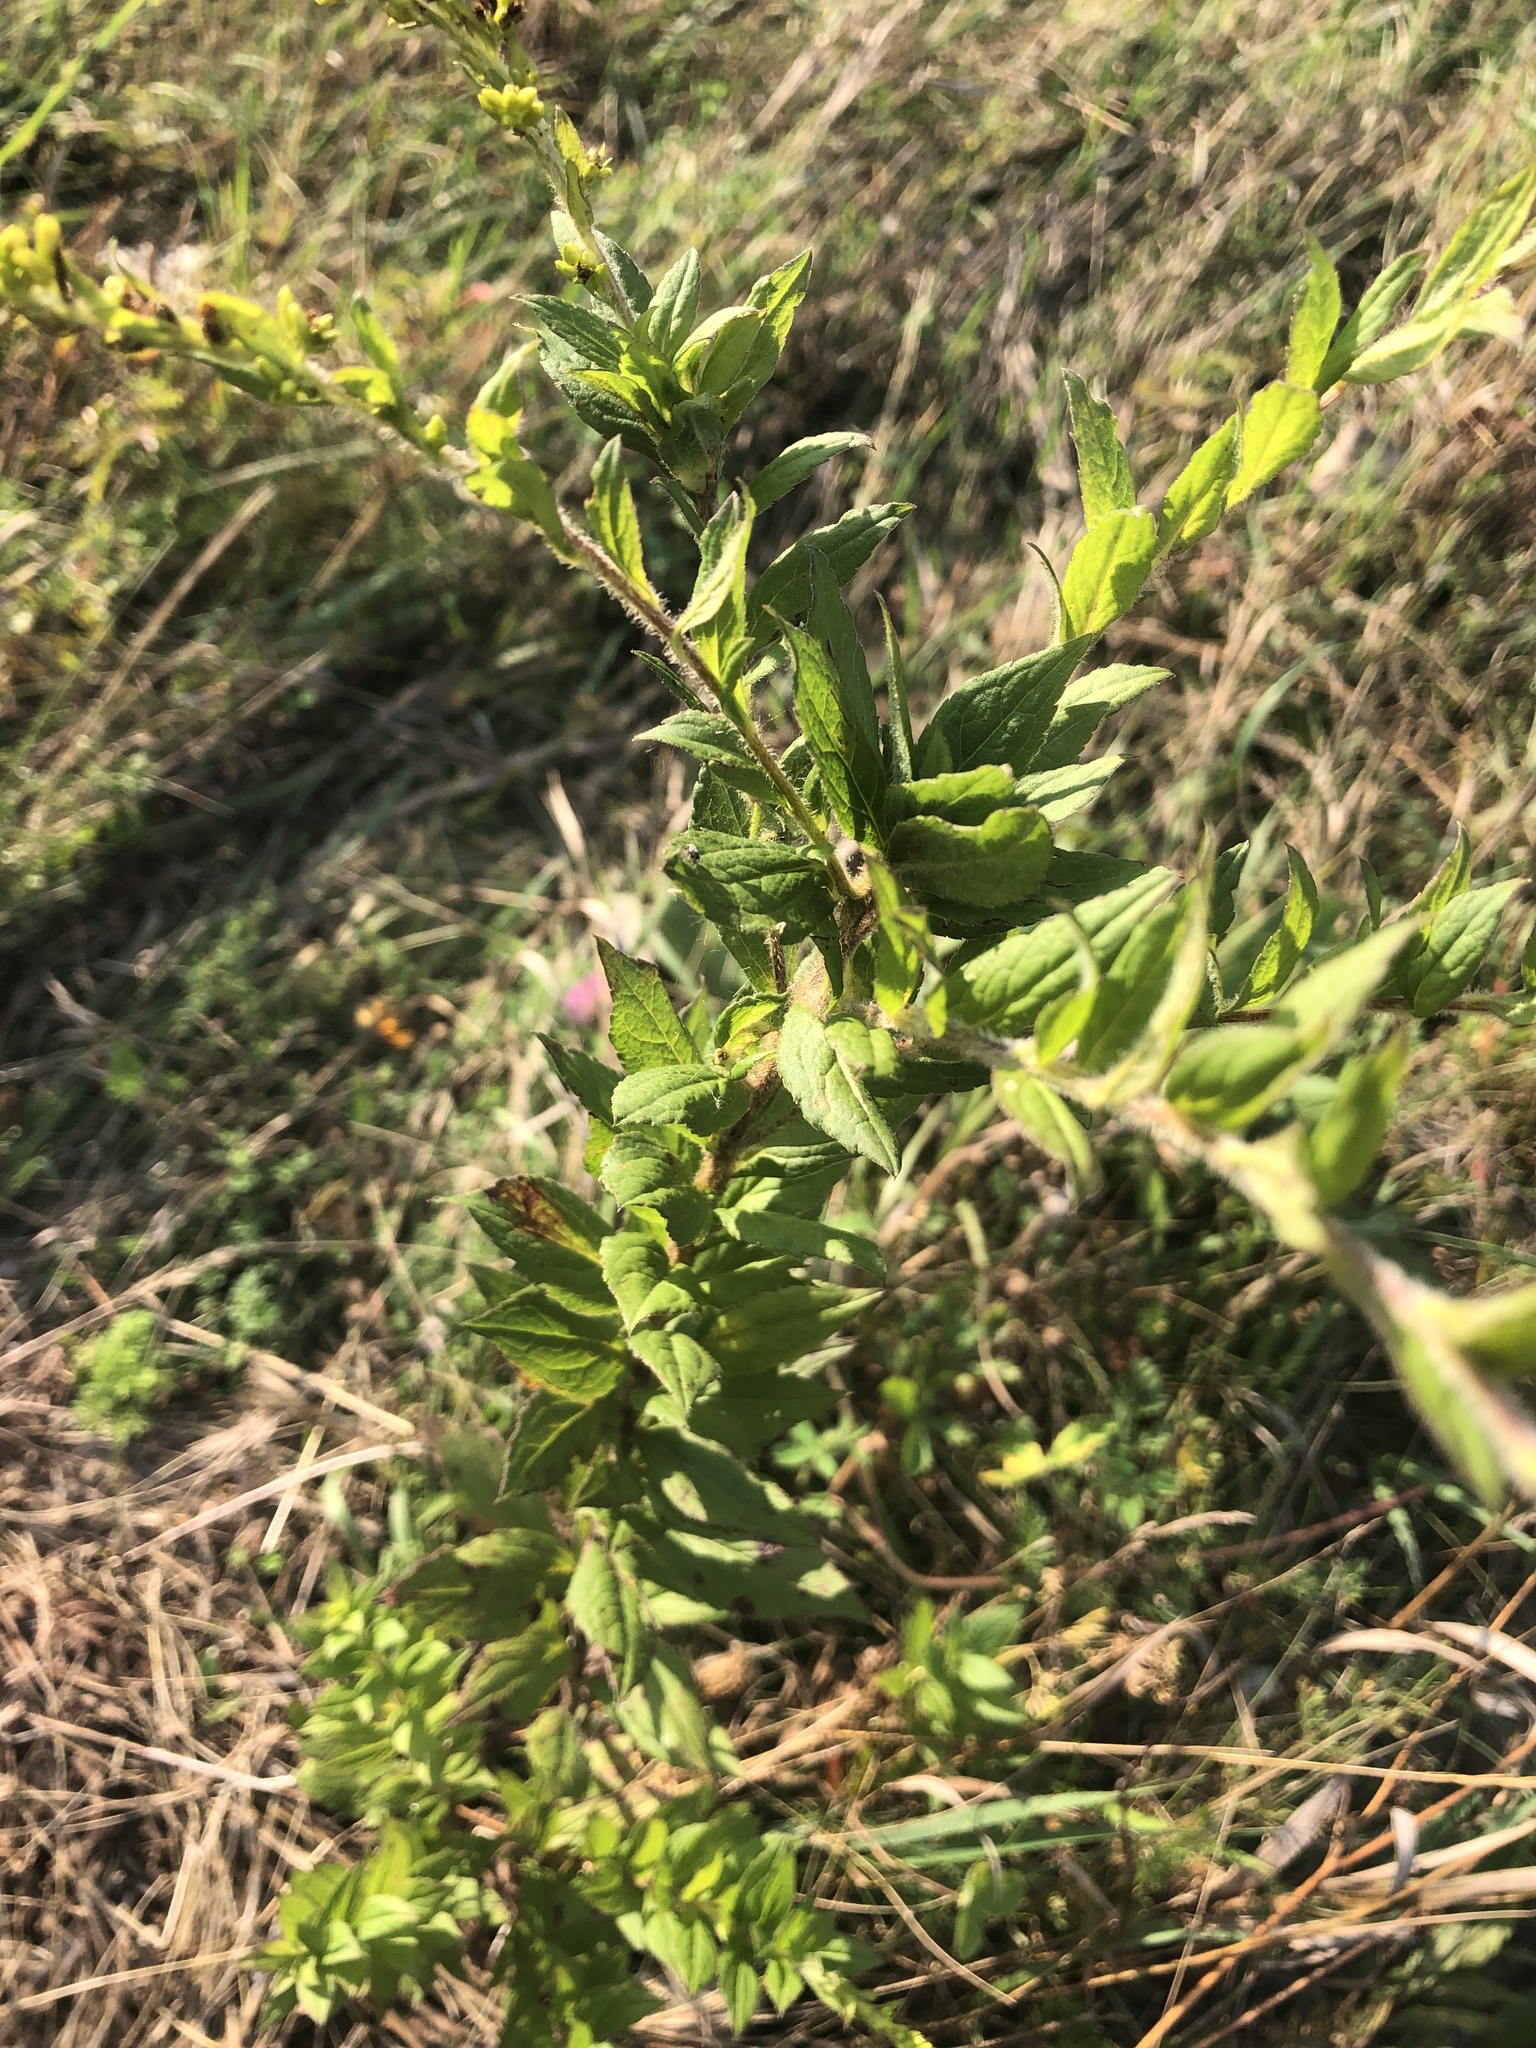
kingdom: Plantae
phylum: Tracheophyta
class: Magnoliopsida
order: Asterales
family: Asteraceae
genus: Solidago
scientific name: Solidago rugosa
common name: Rough-stemmed goldenrod
